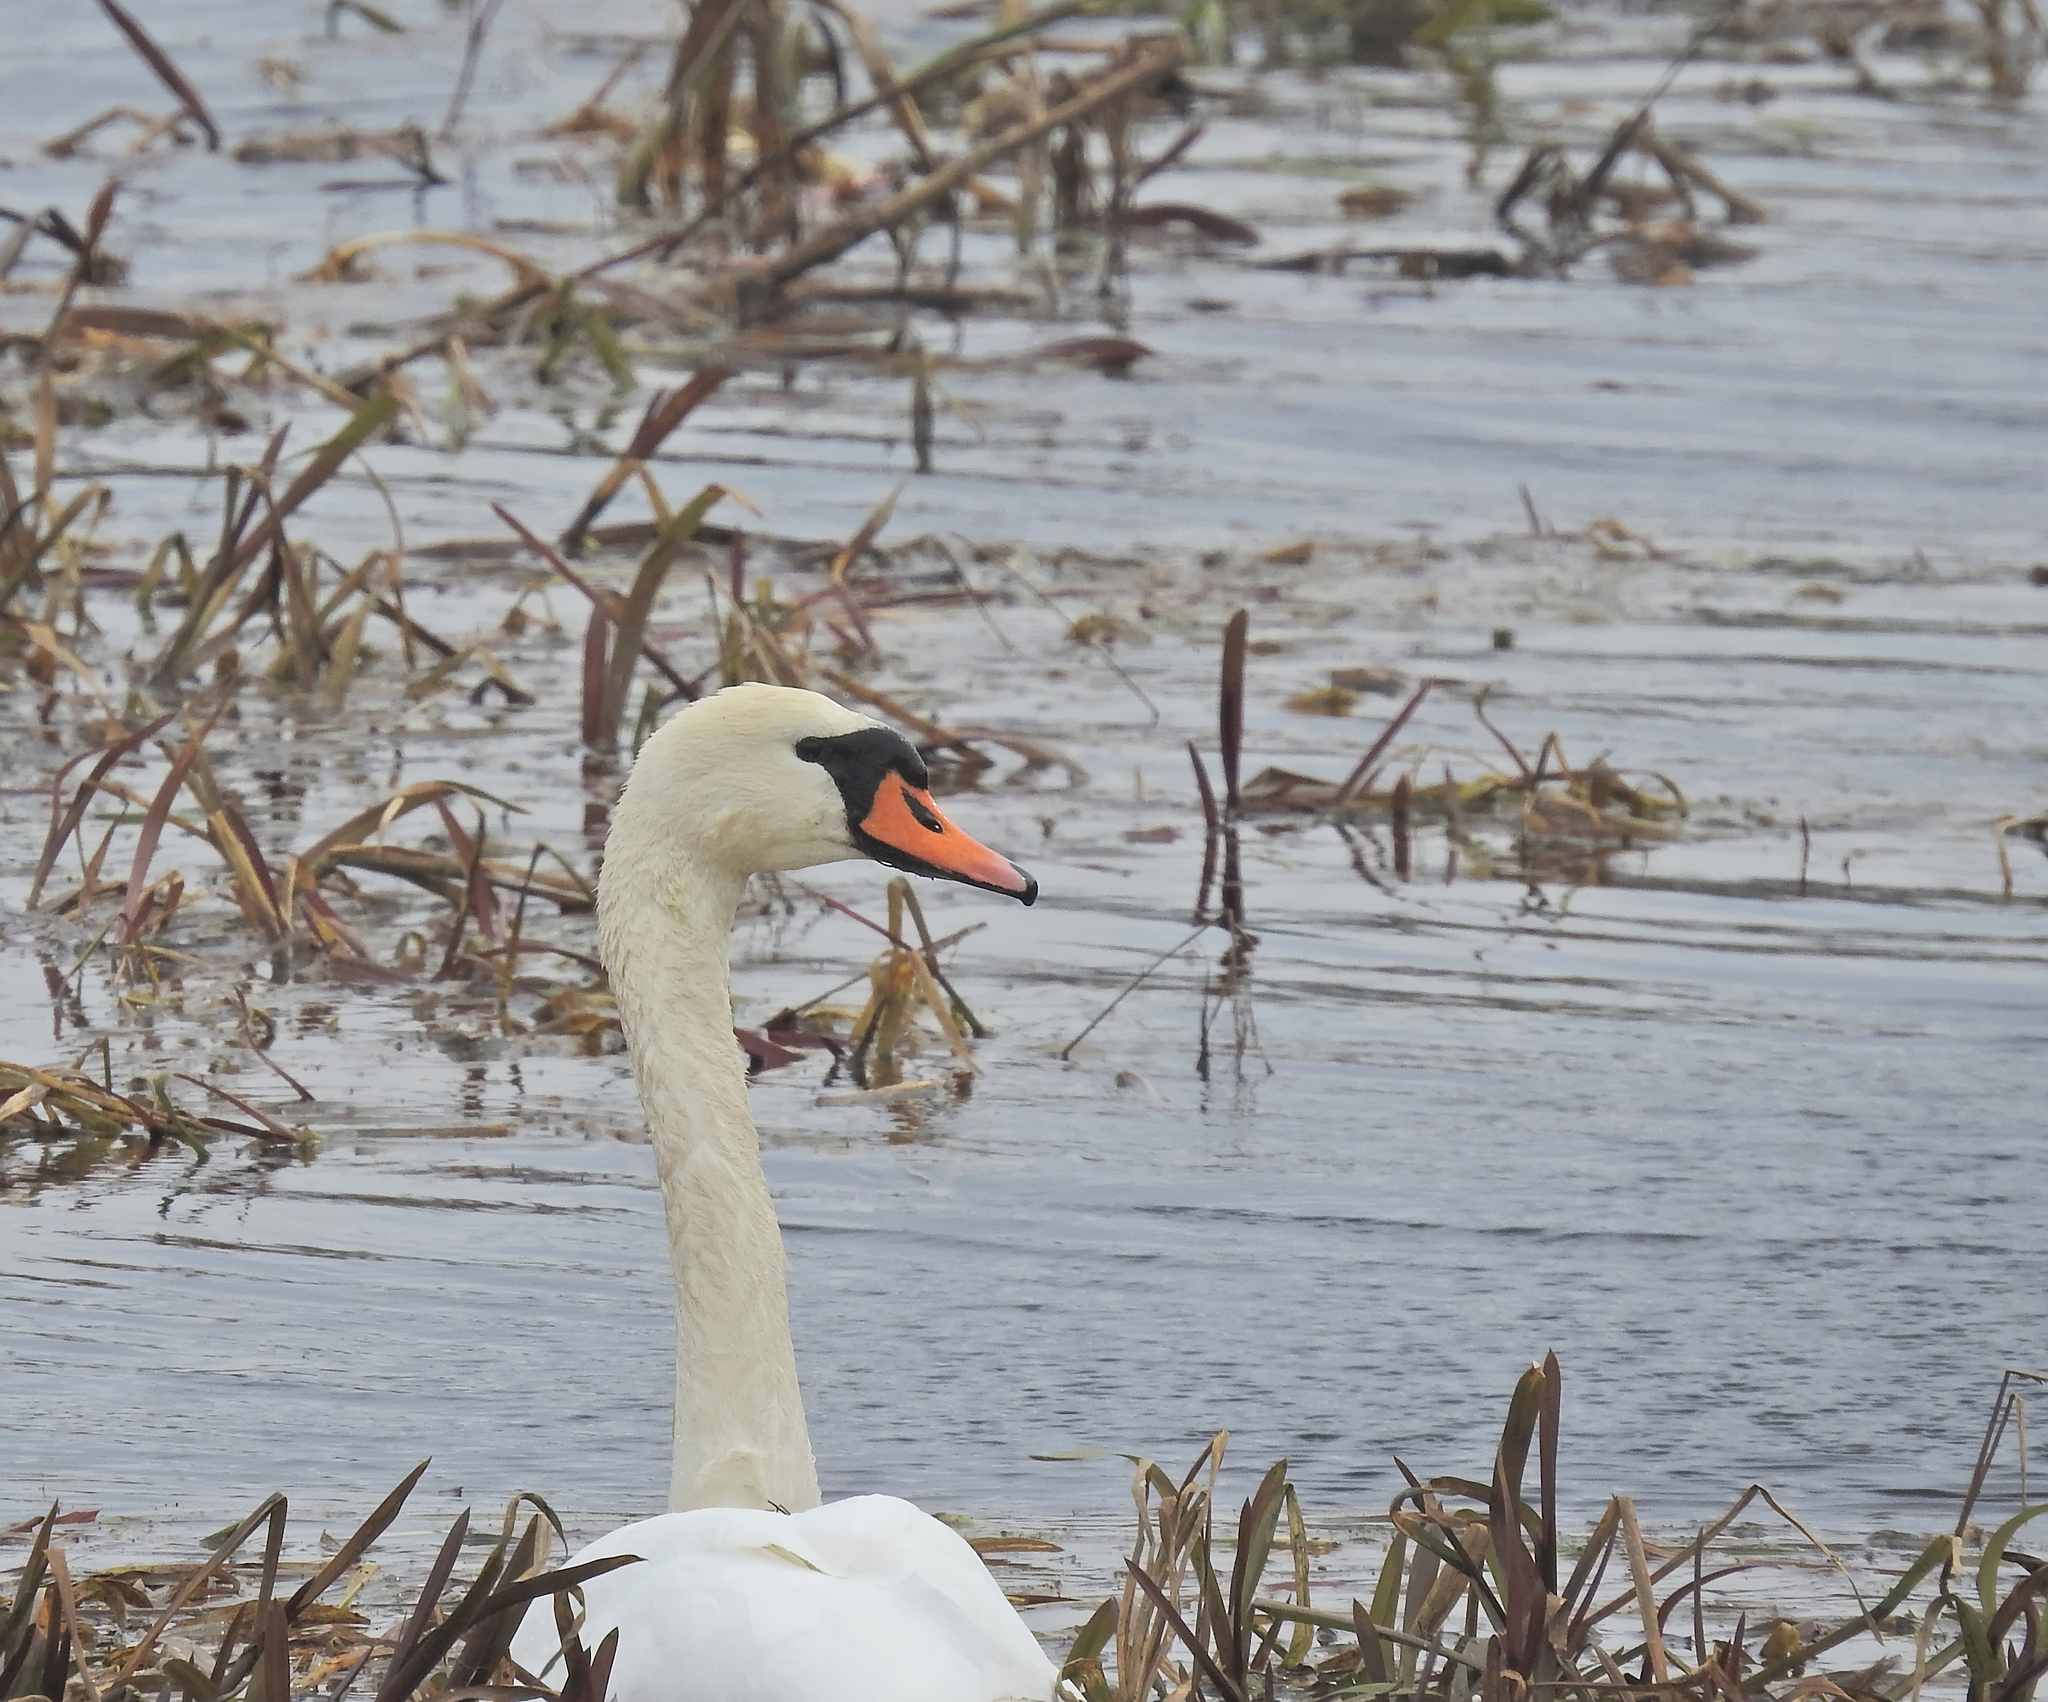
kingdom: Animalia
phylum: Chordata
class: Aves
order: Anseriformes
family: Anatidae
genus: Cygnus
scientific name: Cygnus olor
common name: Mute swan
